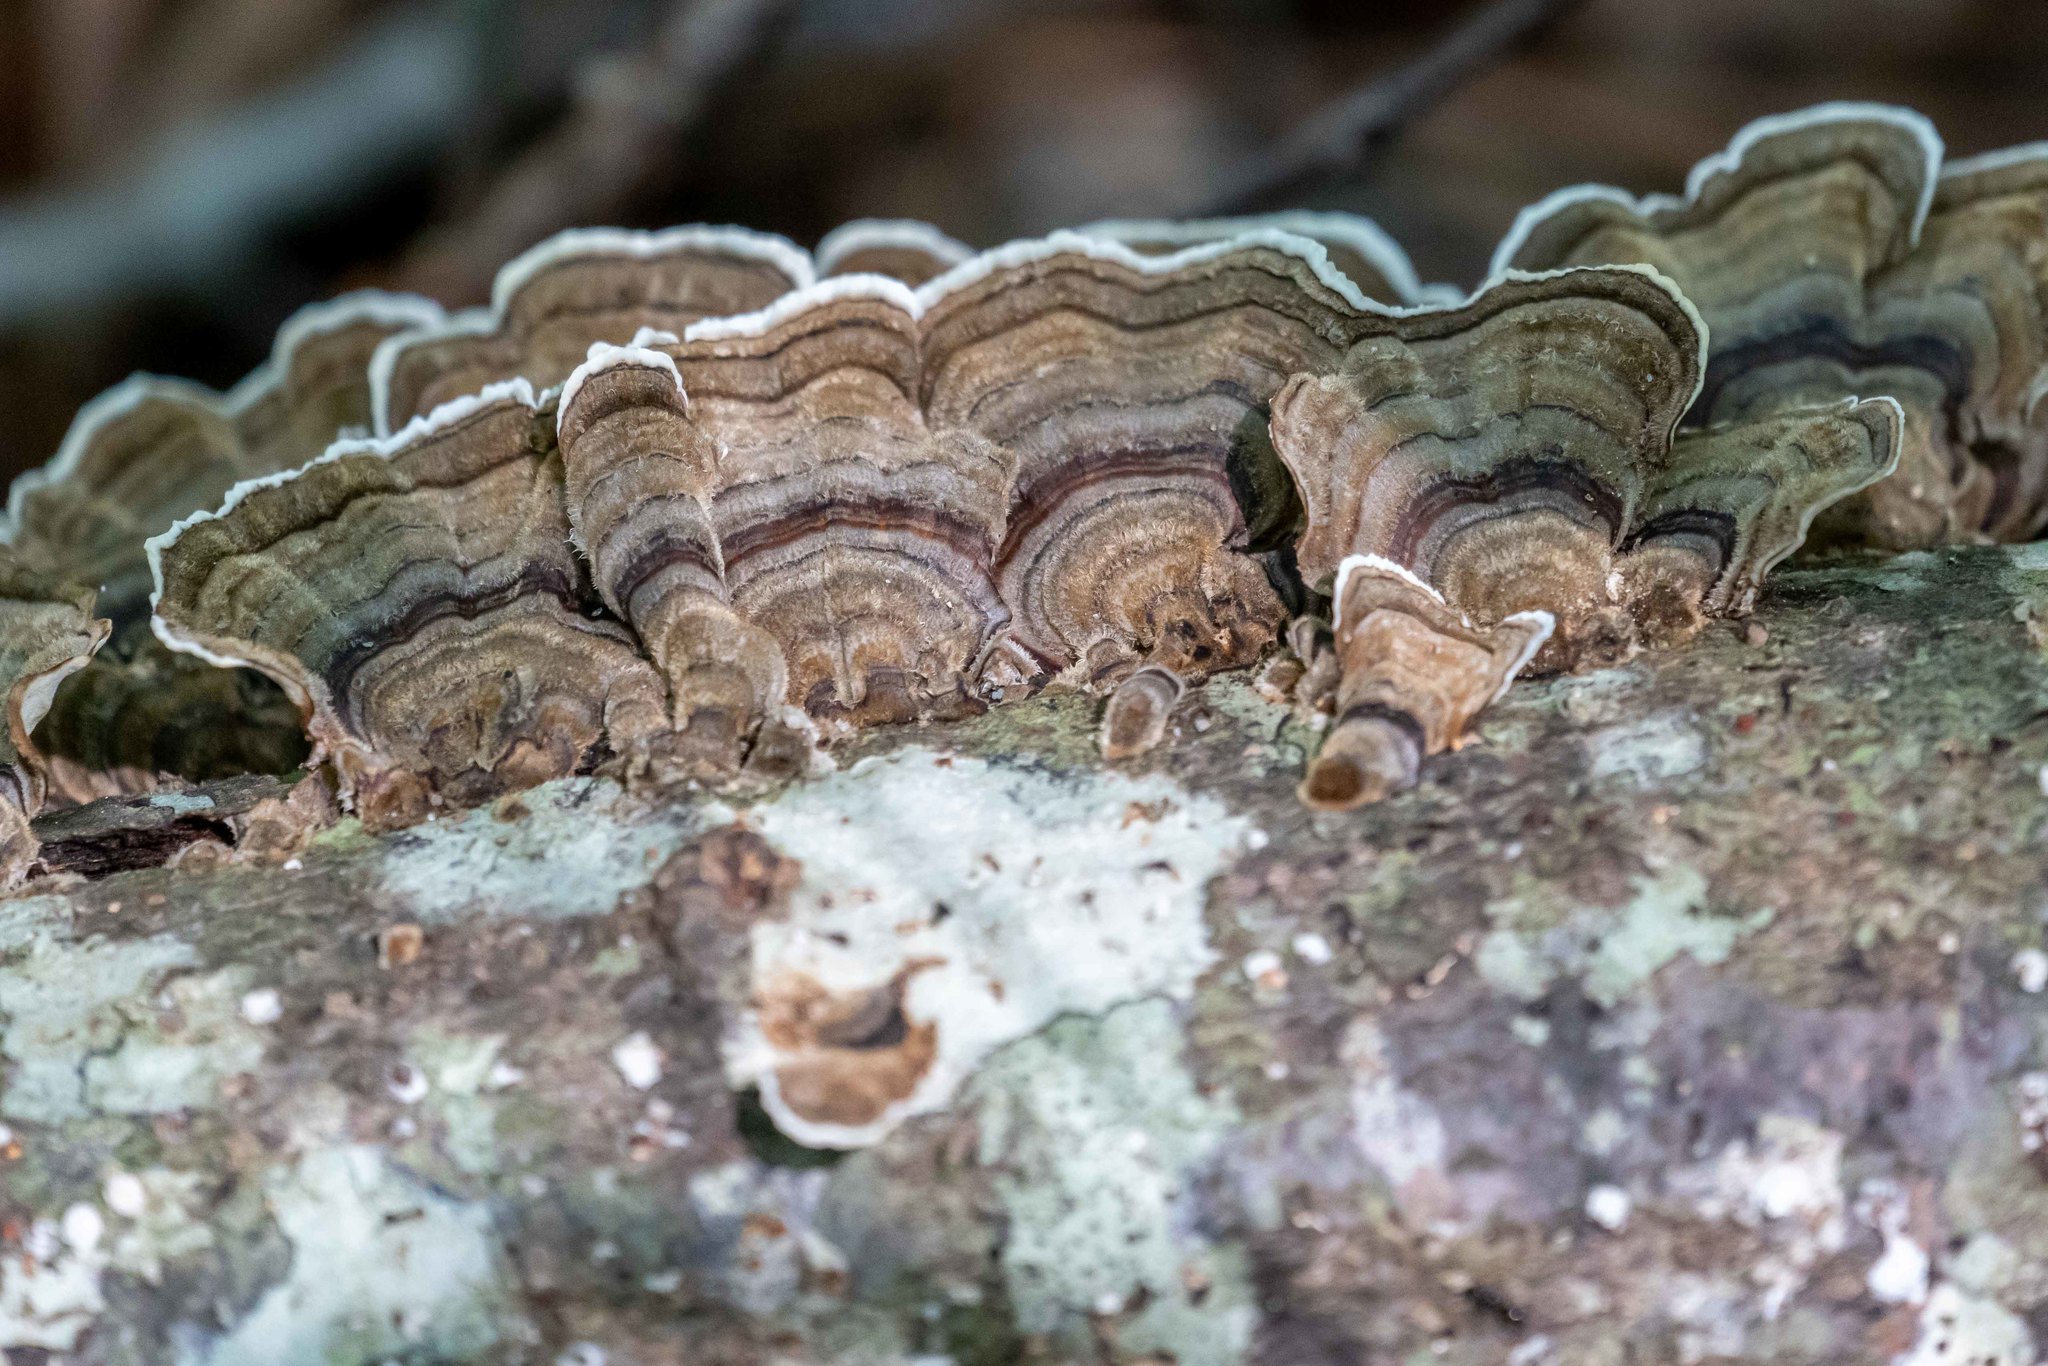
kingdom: Fungi
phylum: Basidiomycota
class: Agaricomycetes
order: Polyporales
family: Polyporaceae
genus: Trametes
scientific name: Trametes versicolor
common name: Turkeytail
